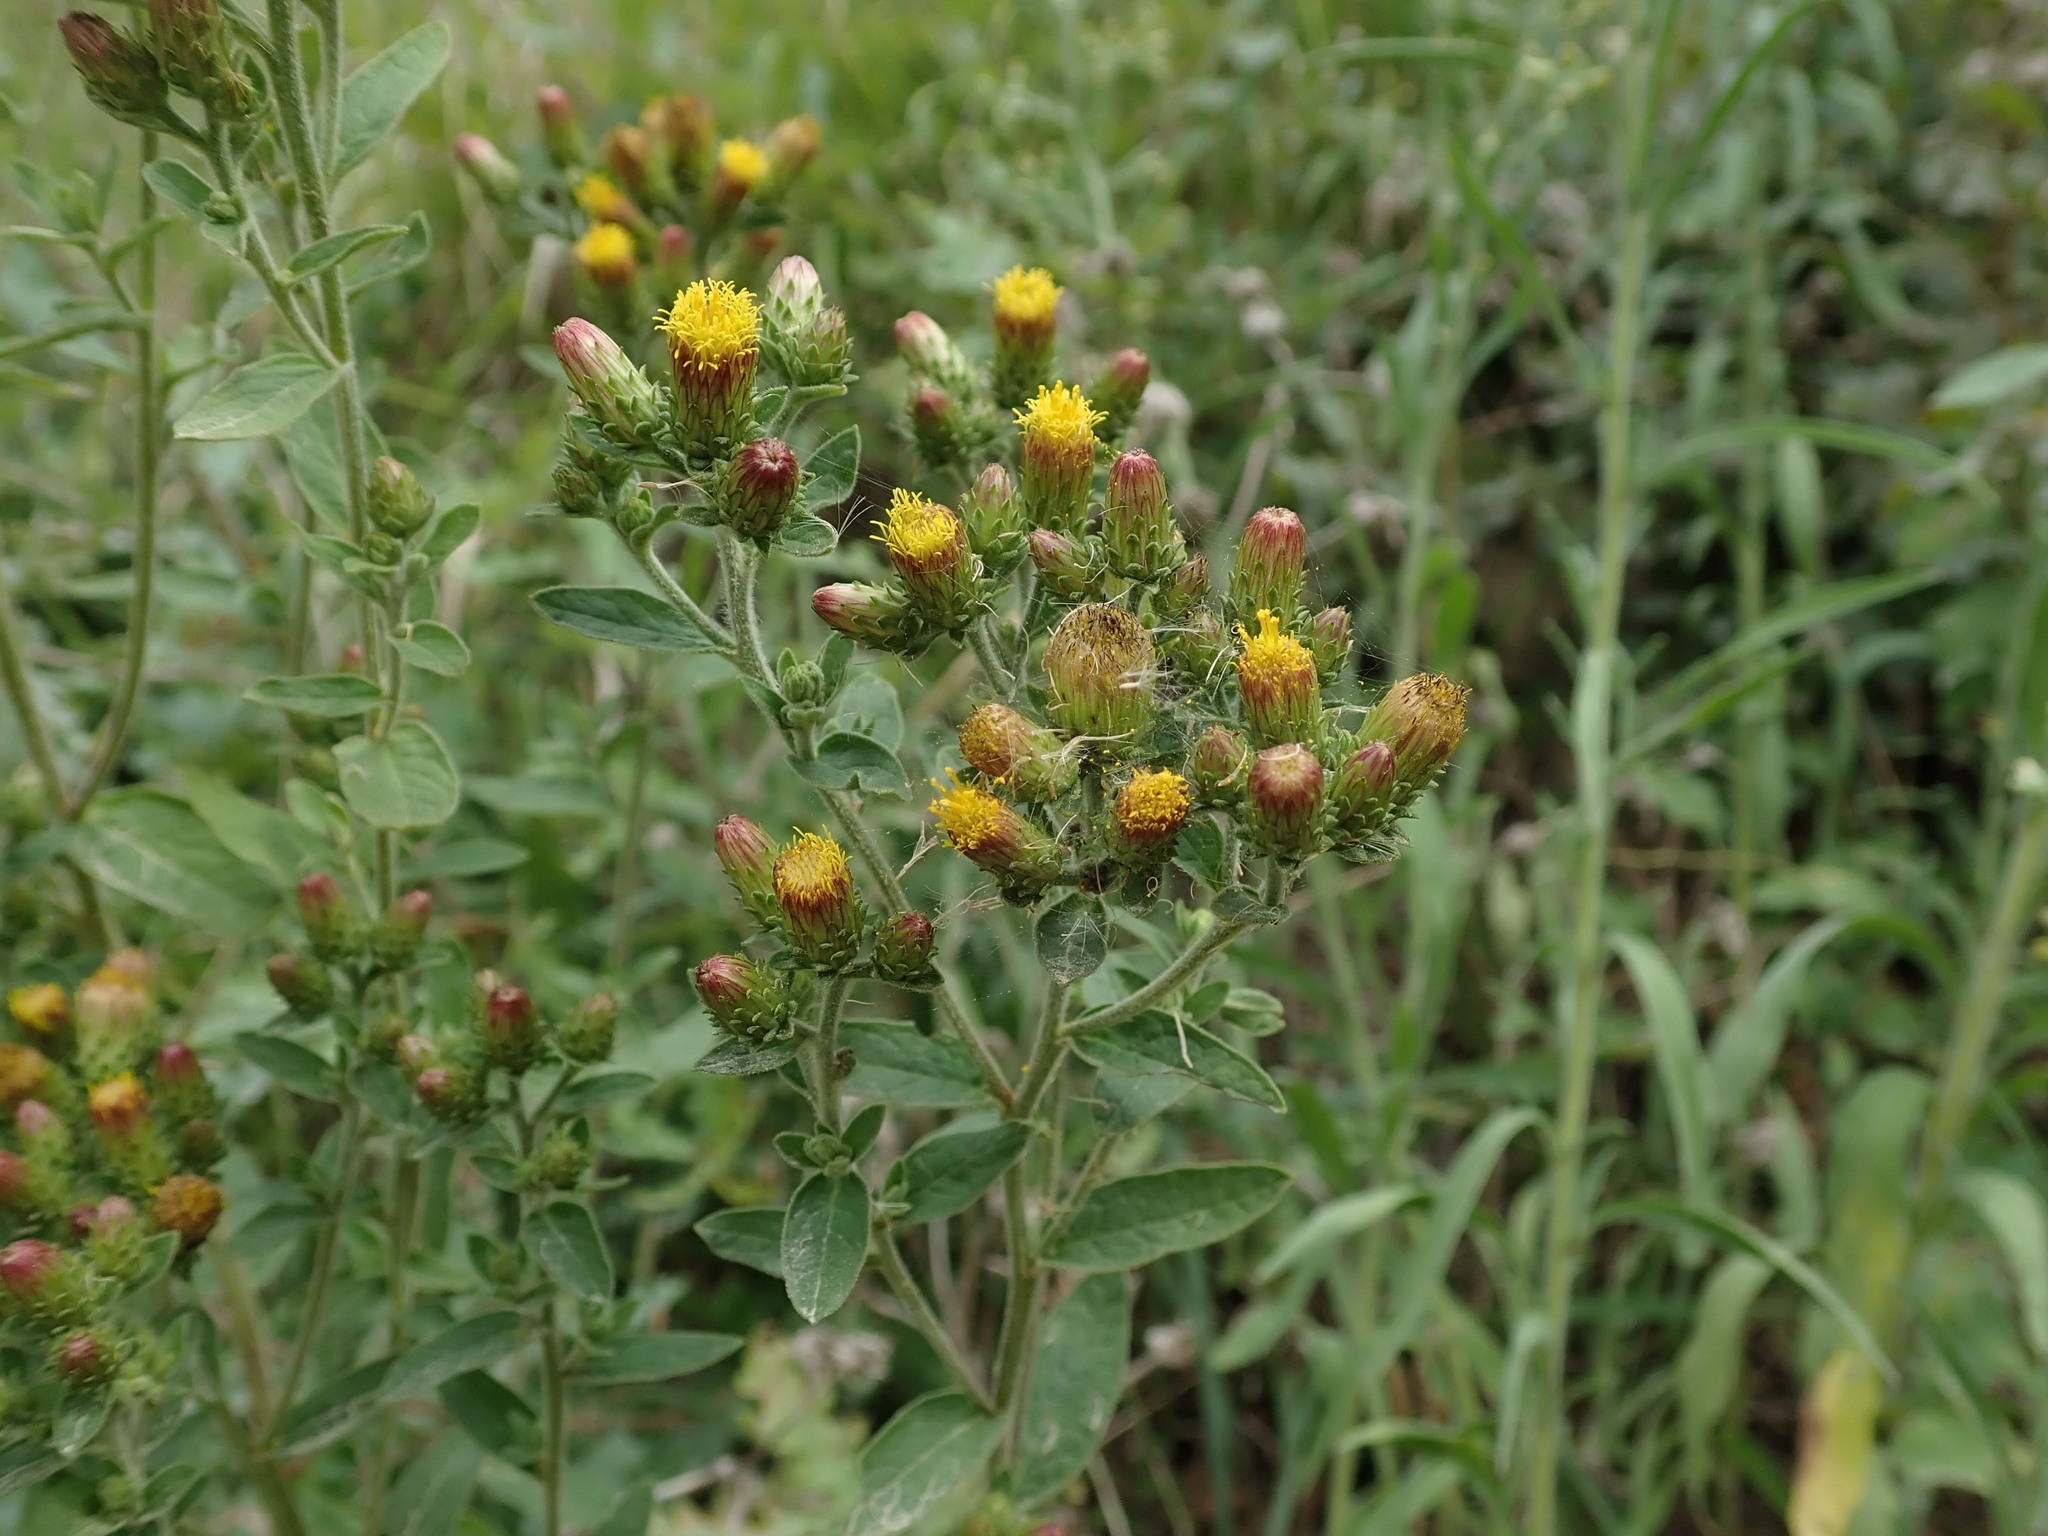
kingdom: Plantae
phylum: Tracheophyta
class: Magnoliopsida
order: Asterales
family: Asteraceae
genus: Pentanema
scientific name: Pentanema squarrosum
